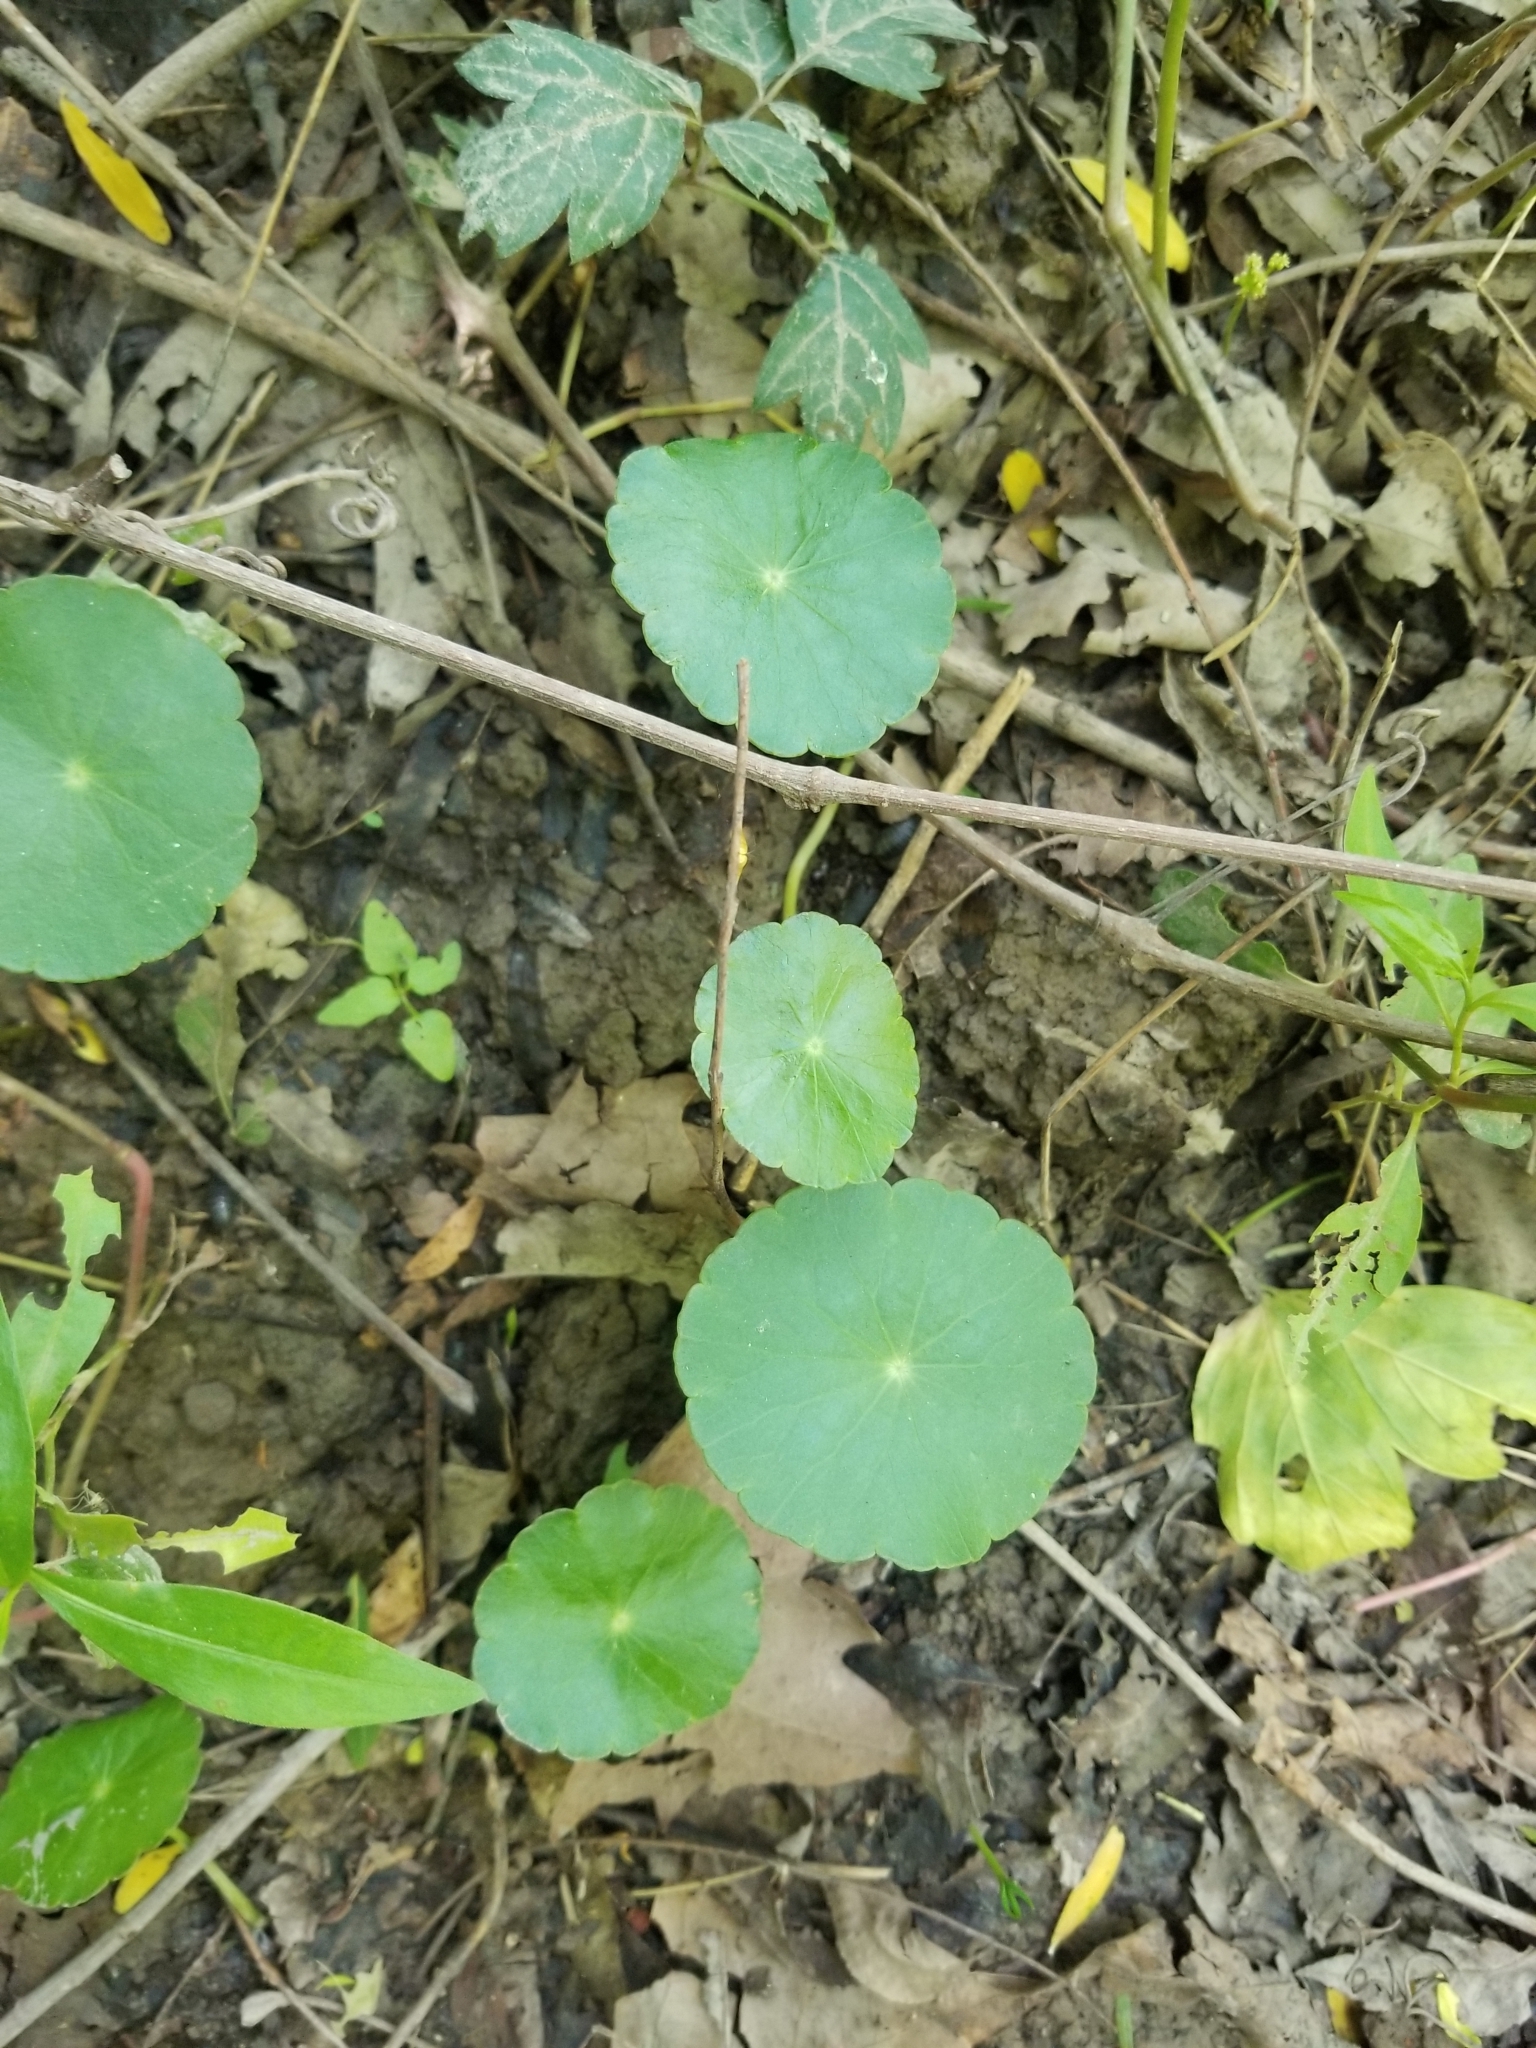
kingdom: Plantae
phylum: Tracheophyta
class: Magnoliopsida
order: Apiales
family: Araliaceae
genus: Hydrocotyle
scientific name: Hydrocotyle verticillata
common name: Whorled marshpennywort
